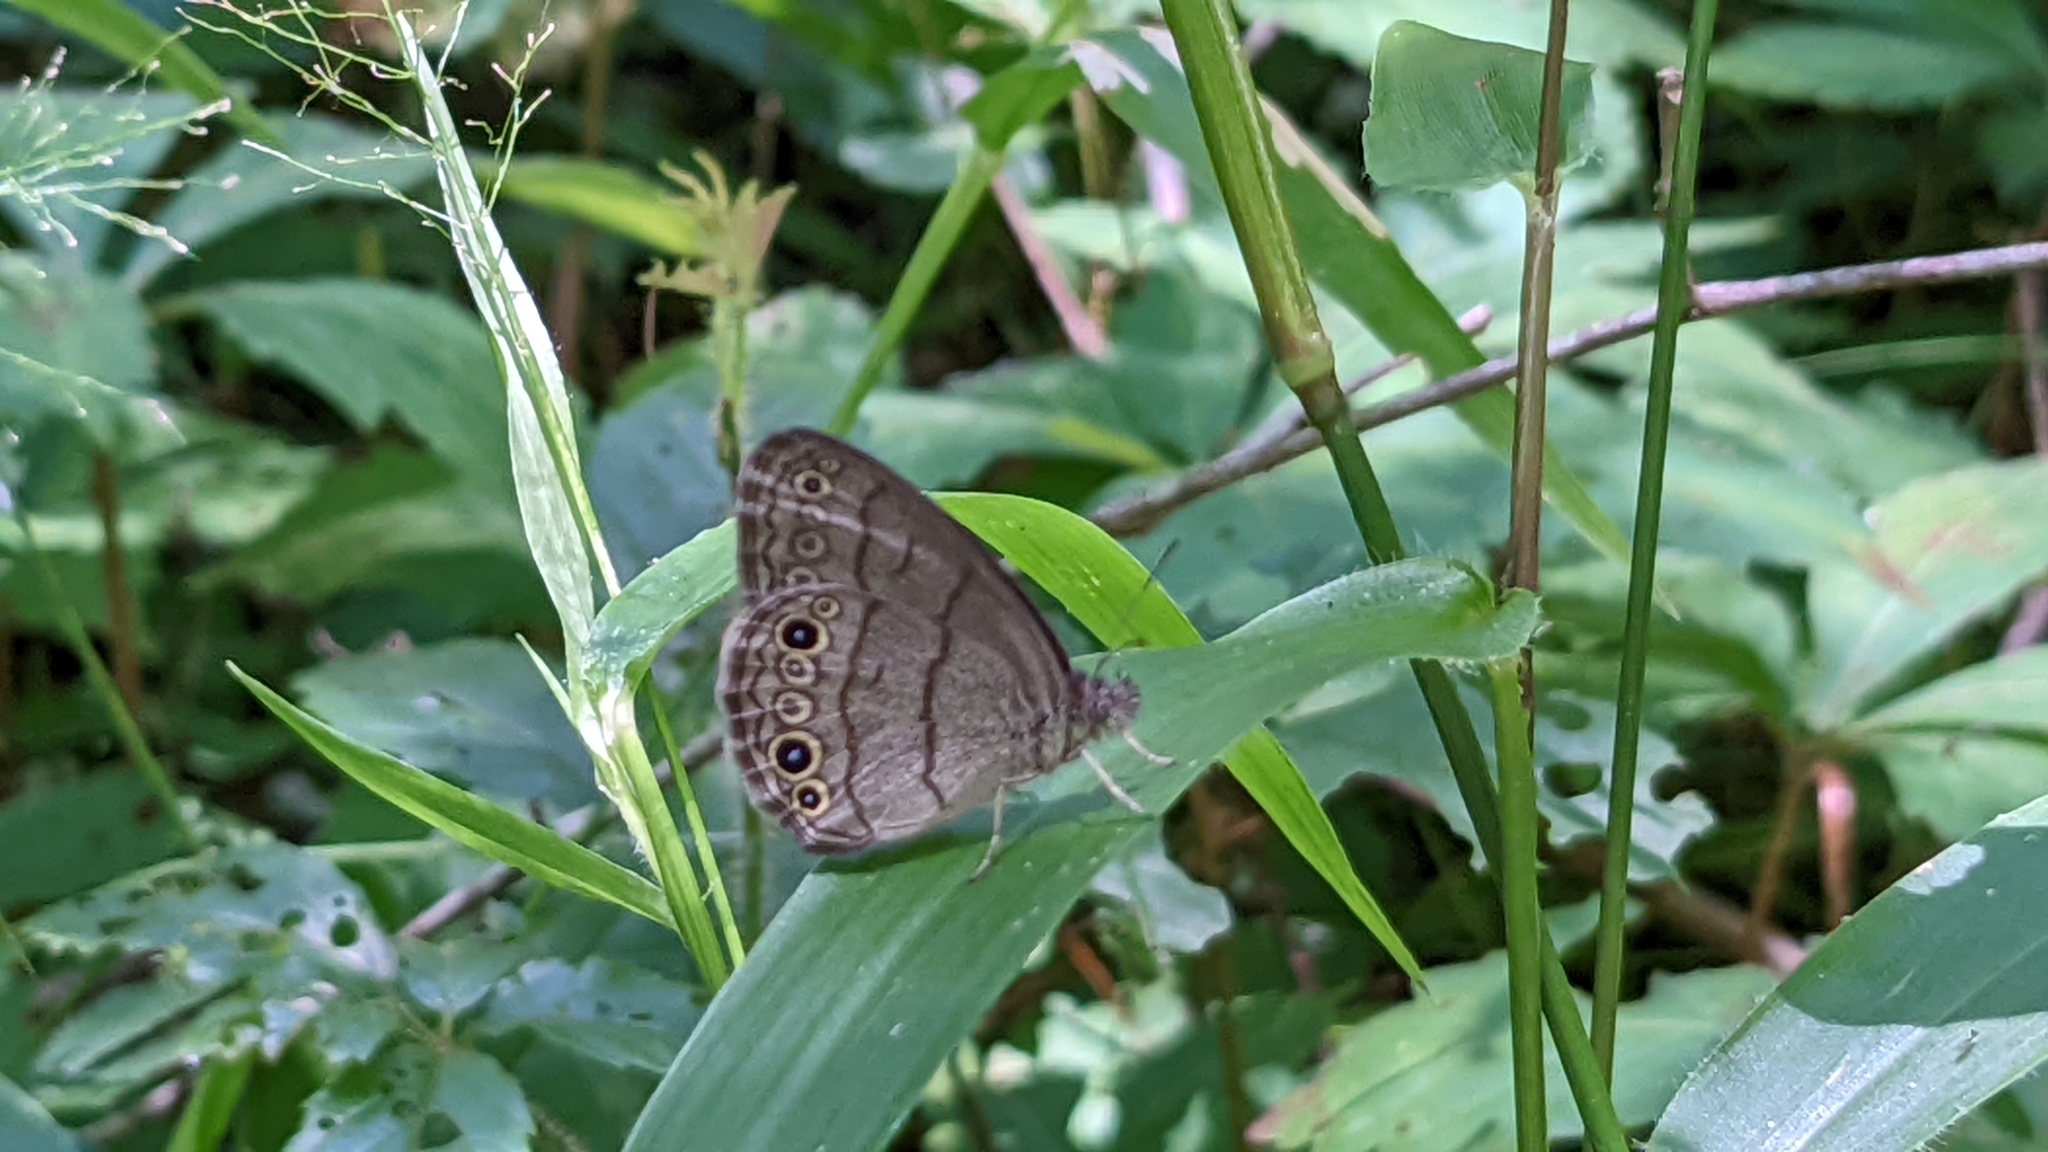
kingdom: Animalia
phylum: Arthropoda
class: Insecta
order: Lepidoptera
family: Nymphalidae
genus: Hermeuptychia
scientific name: Hermeuptychia intricata
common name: Intricate satyr
